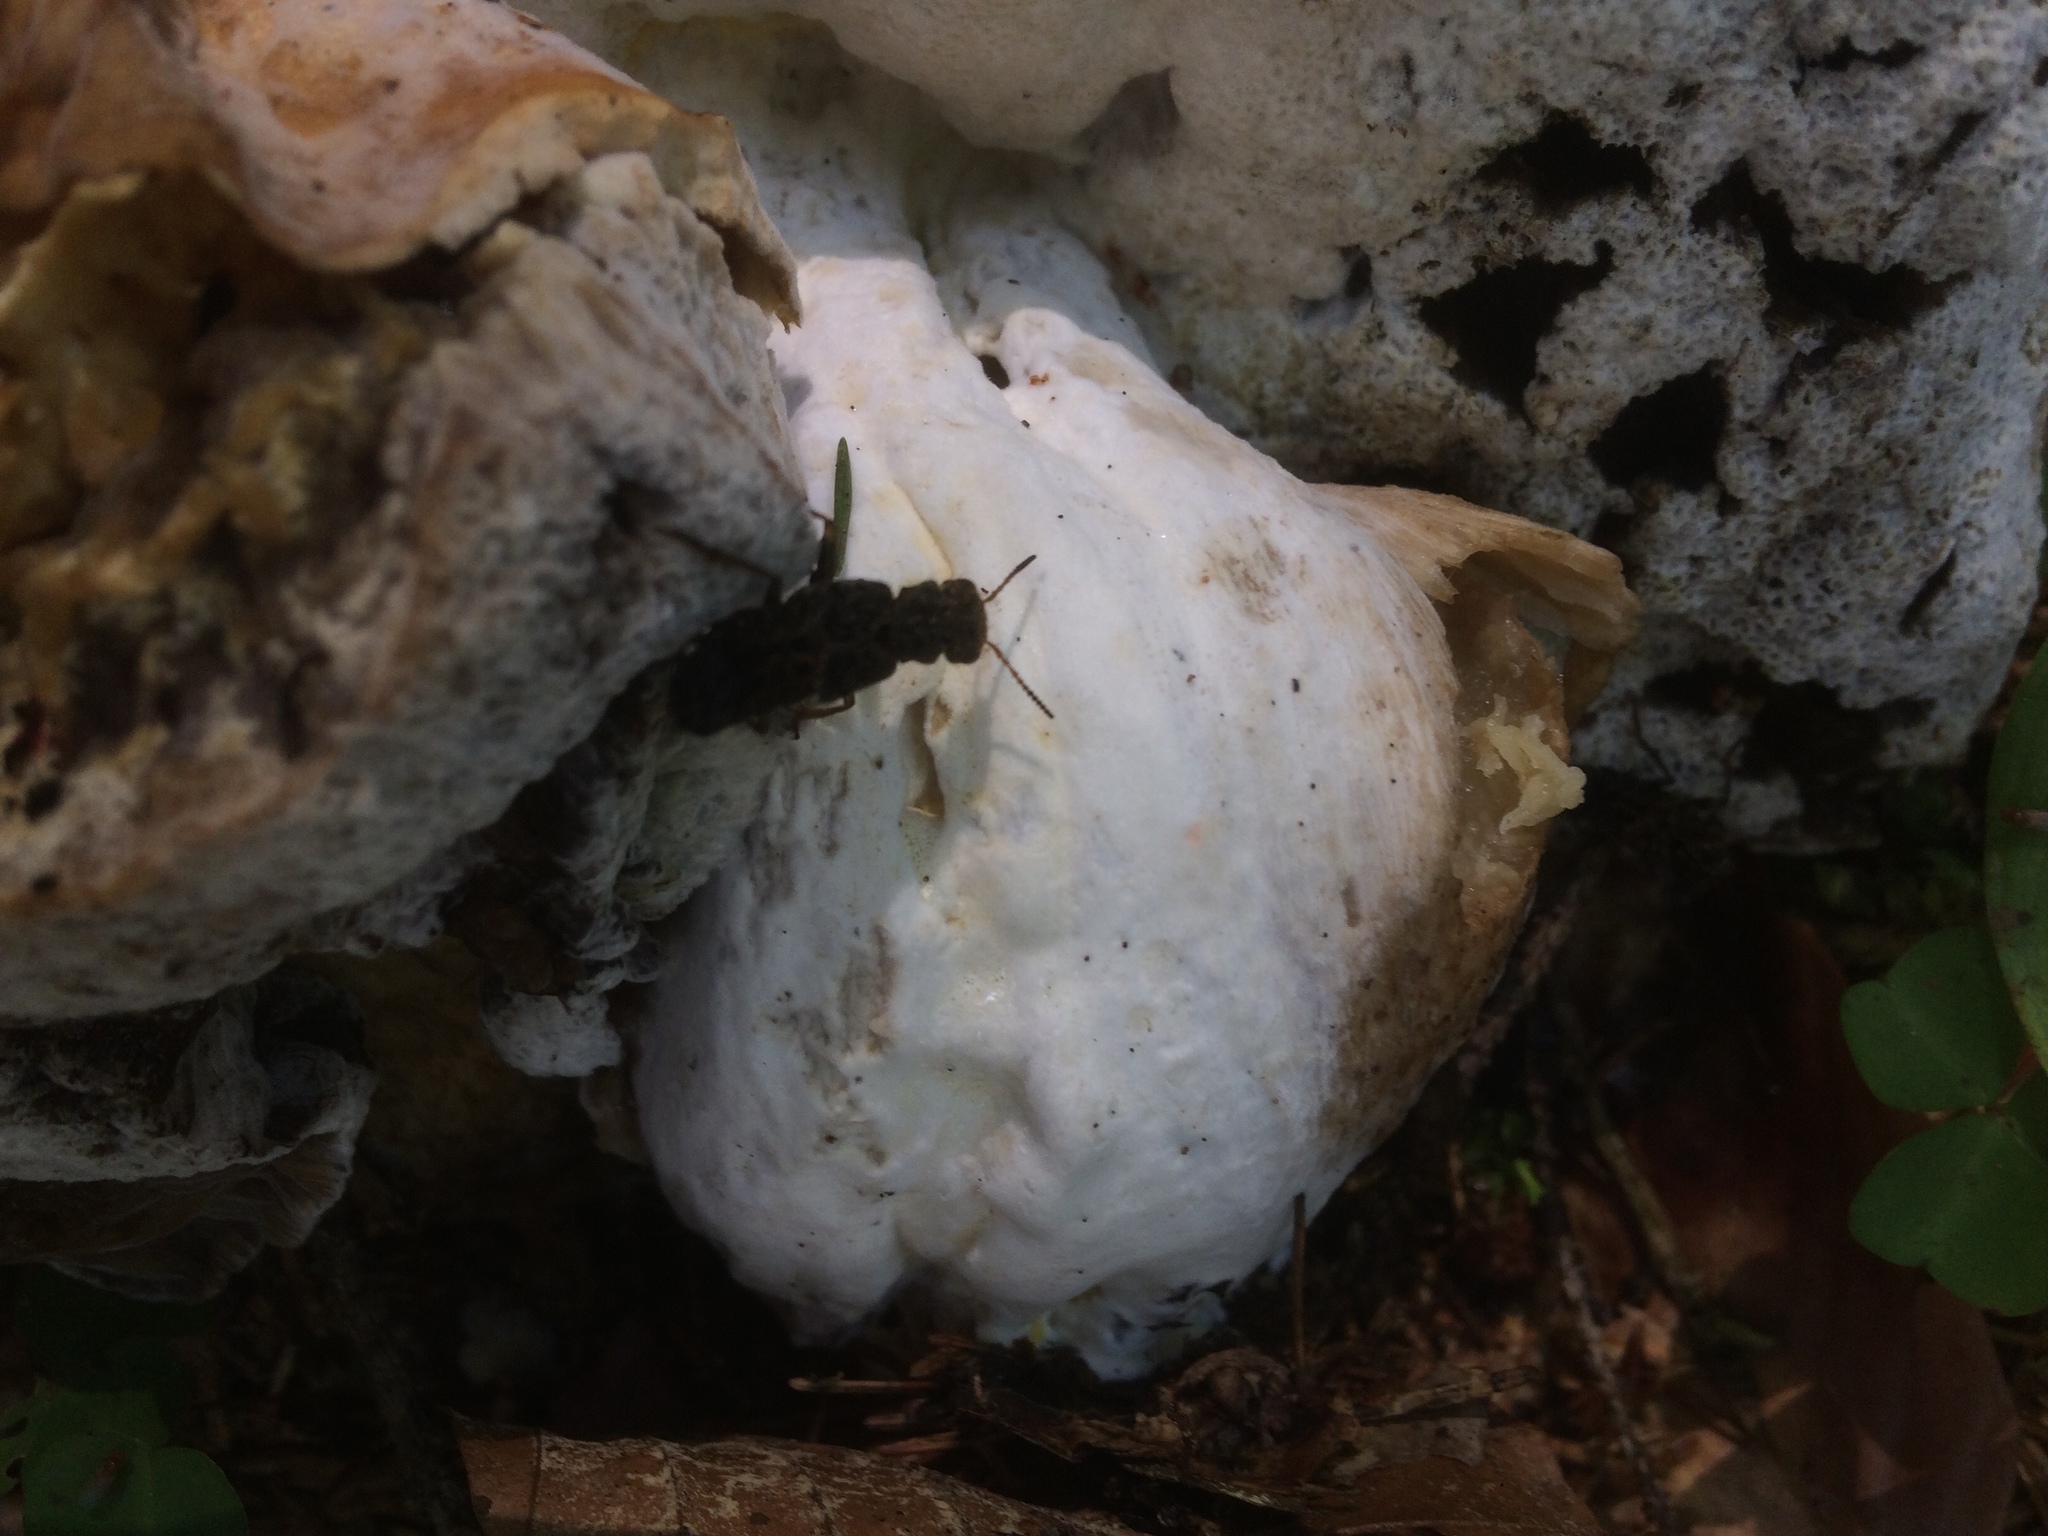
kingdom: Animalia
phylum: Arthropoda
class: Insecta
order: Coleoptera
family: Staphylinidae
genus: Ontholestes
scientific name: Ontholestes tessellatus
